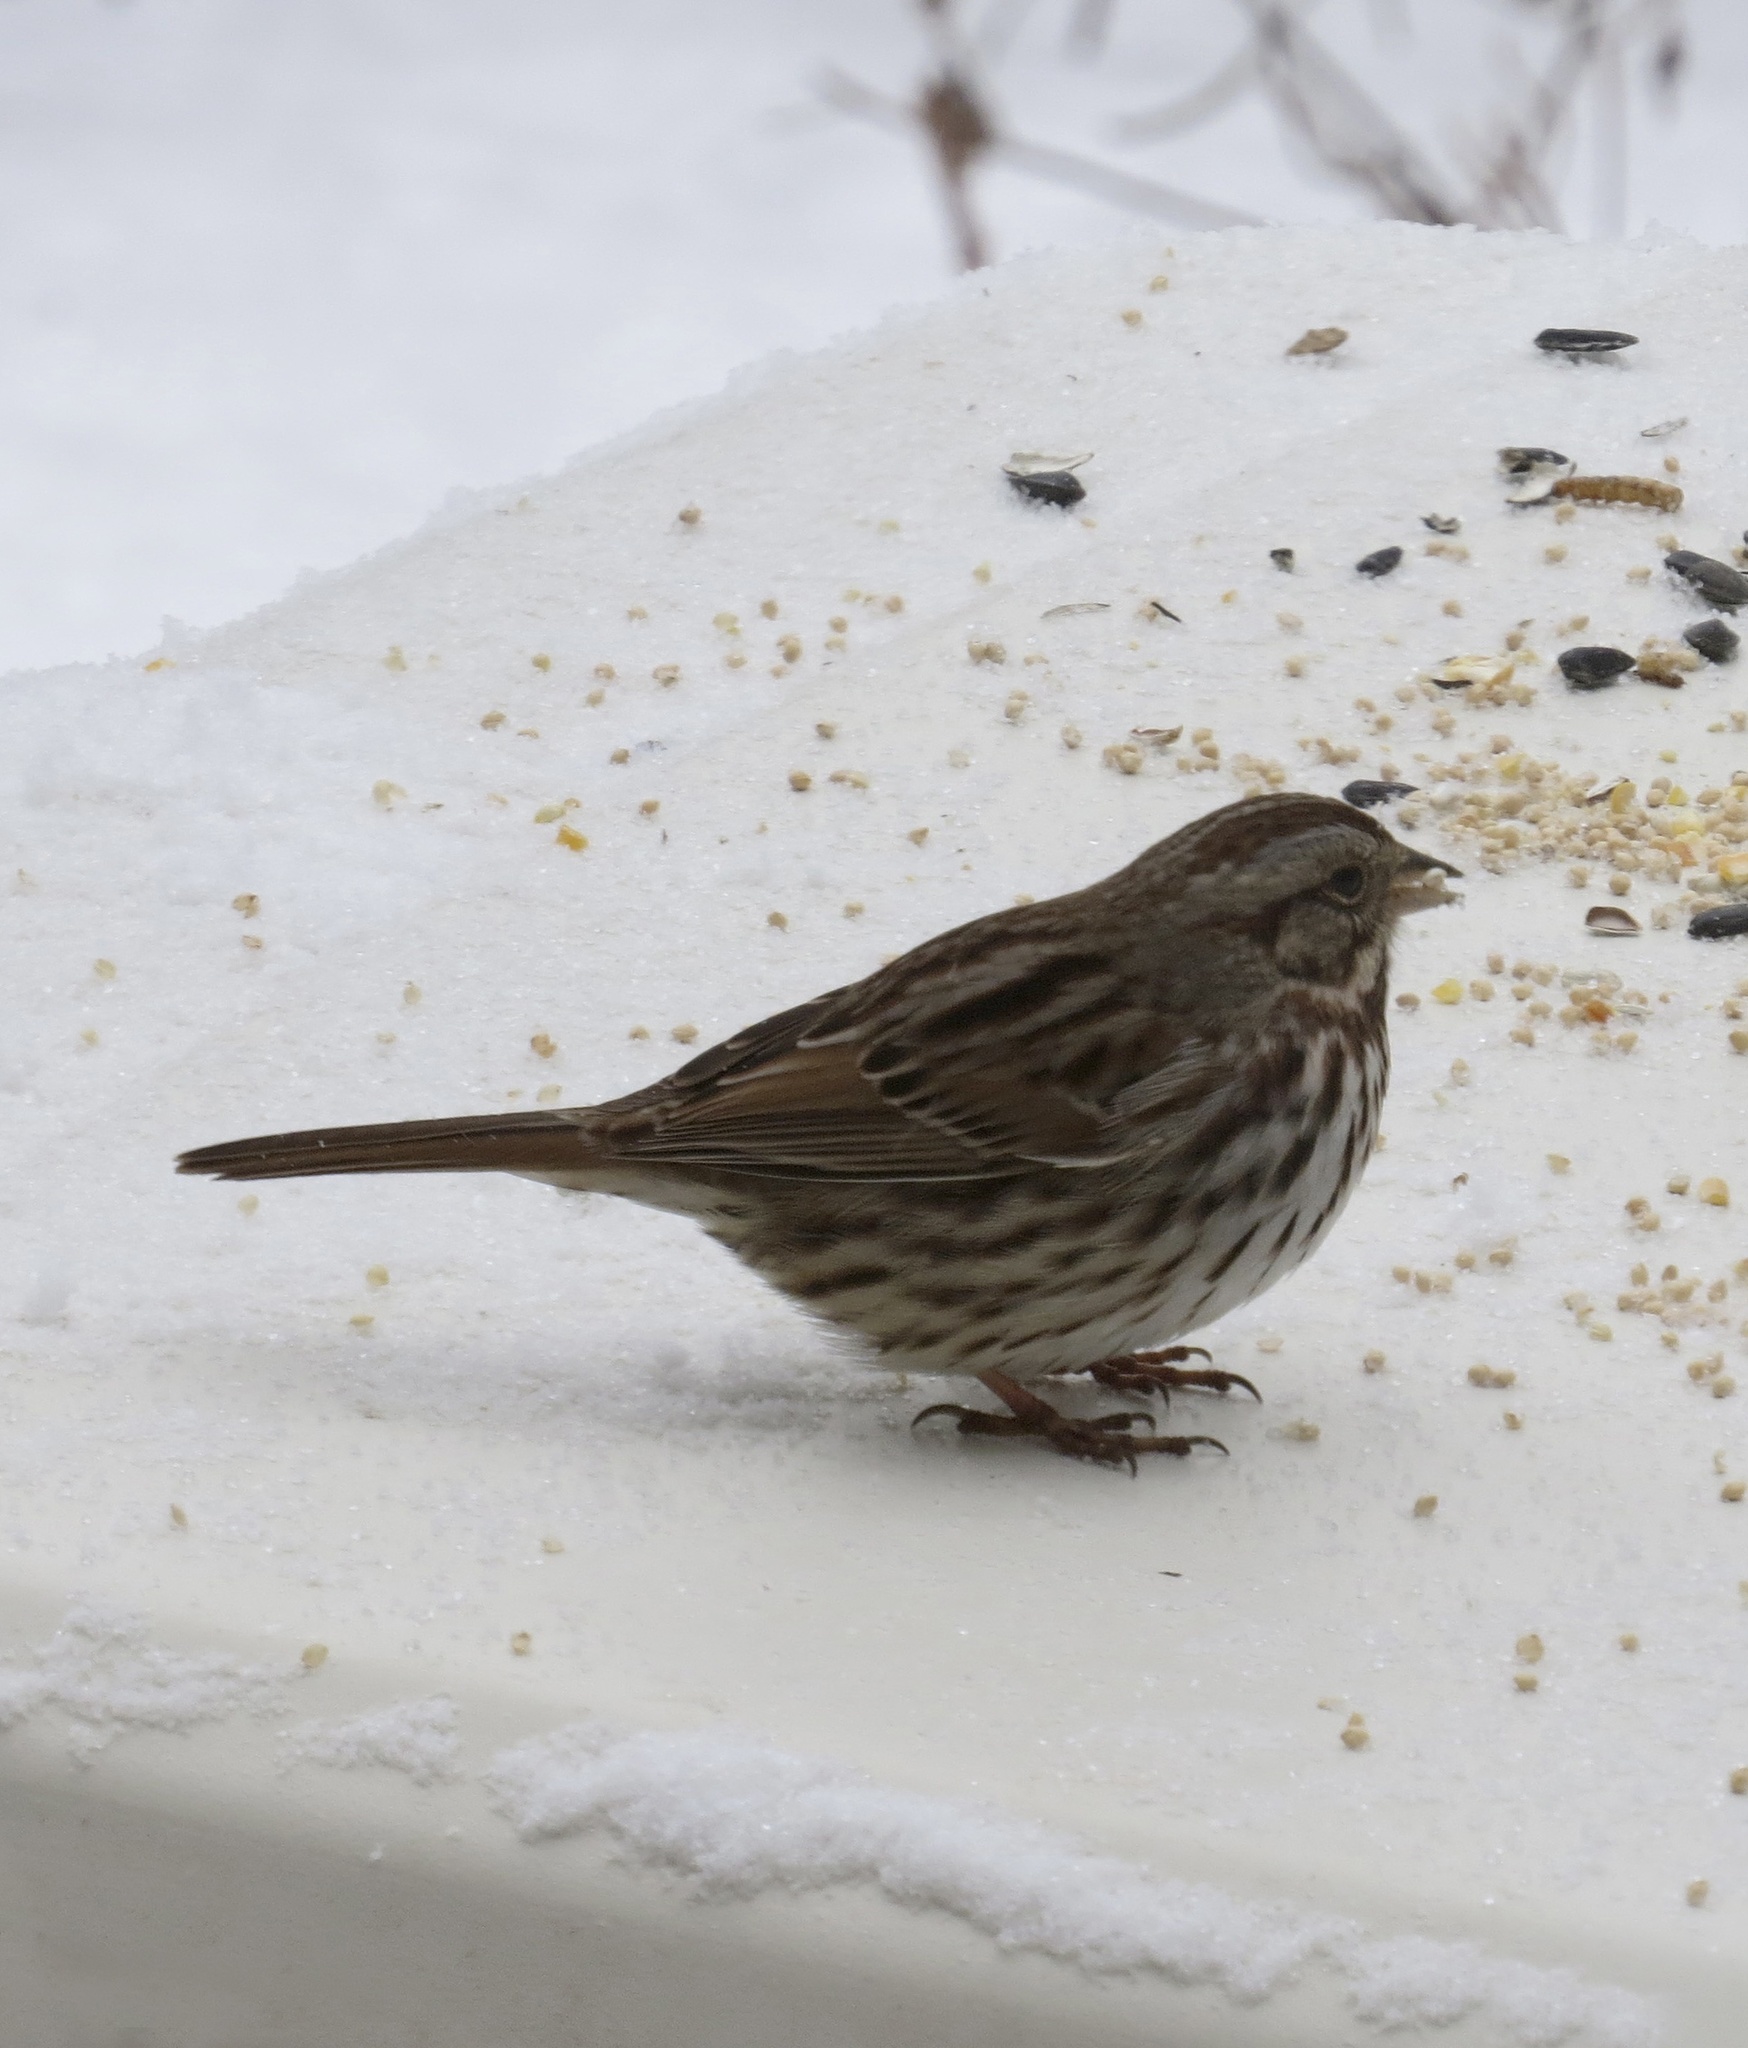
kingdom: Animalia
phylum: Chordata
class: Aves
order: Passeriformes
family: Passerellidae
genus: Melospiza
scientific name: Melospiza melodia
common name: Song sparrow
